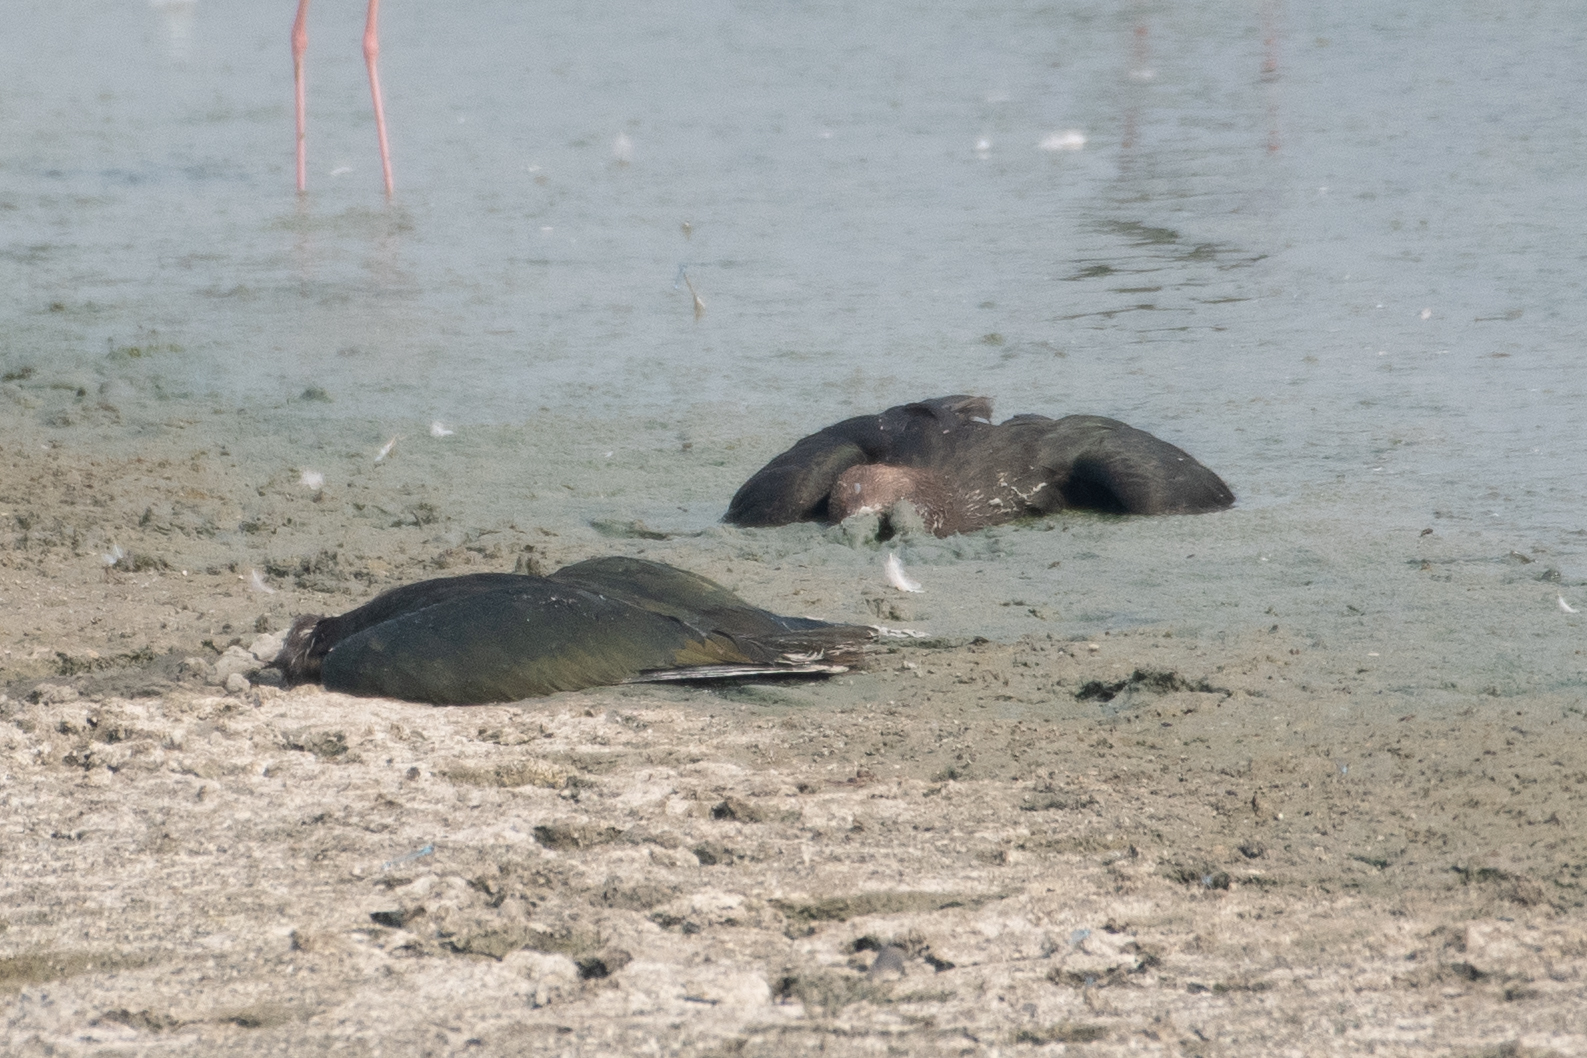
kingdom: Animalia
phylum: Chordata
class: Aves
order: Pelecaniformes
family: Threskiornithidae
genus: Plegadis
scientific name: Plegadis chihi
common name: White-faced ibis
